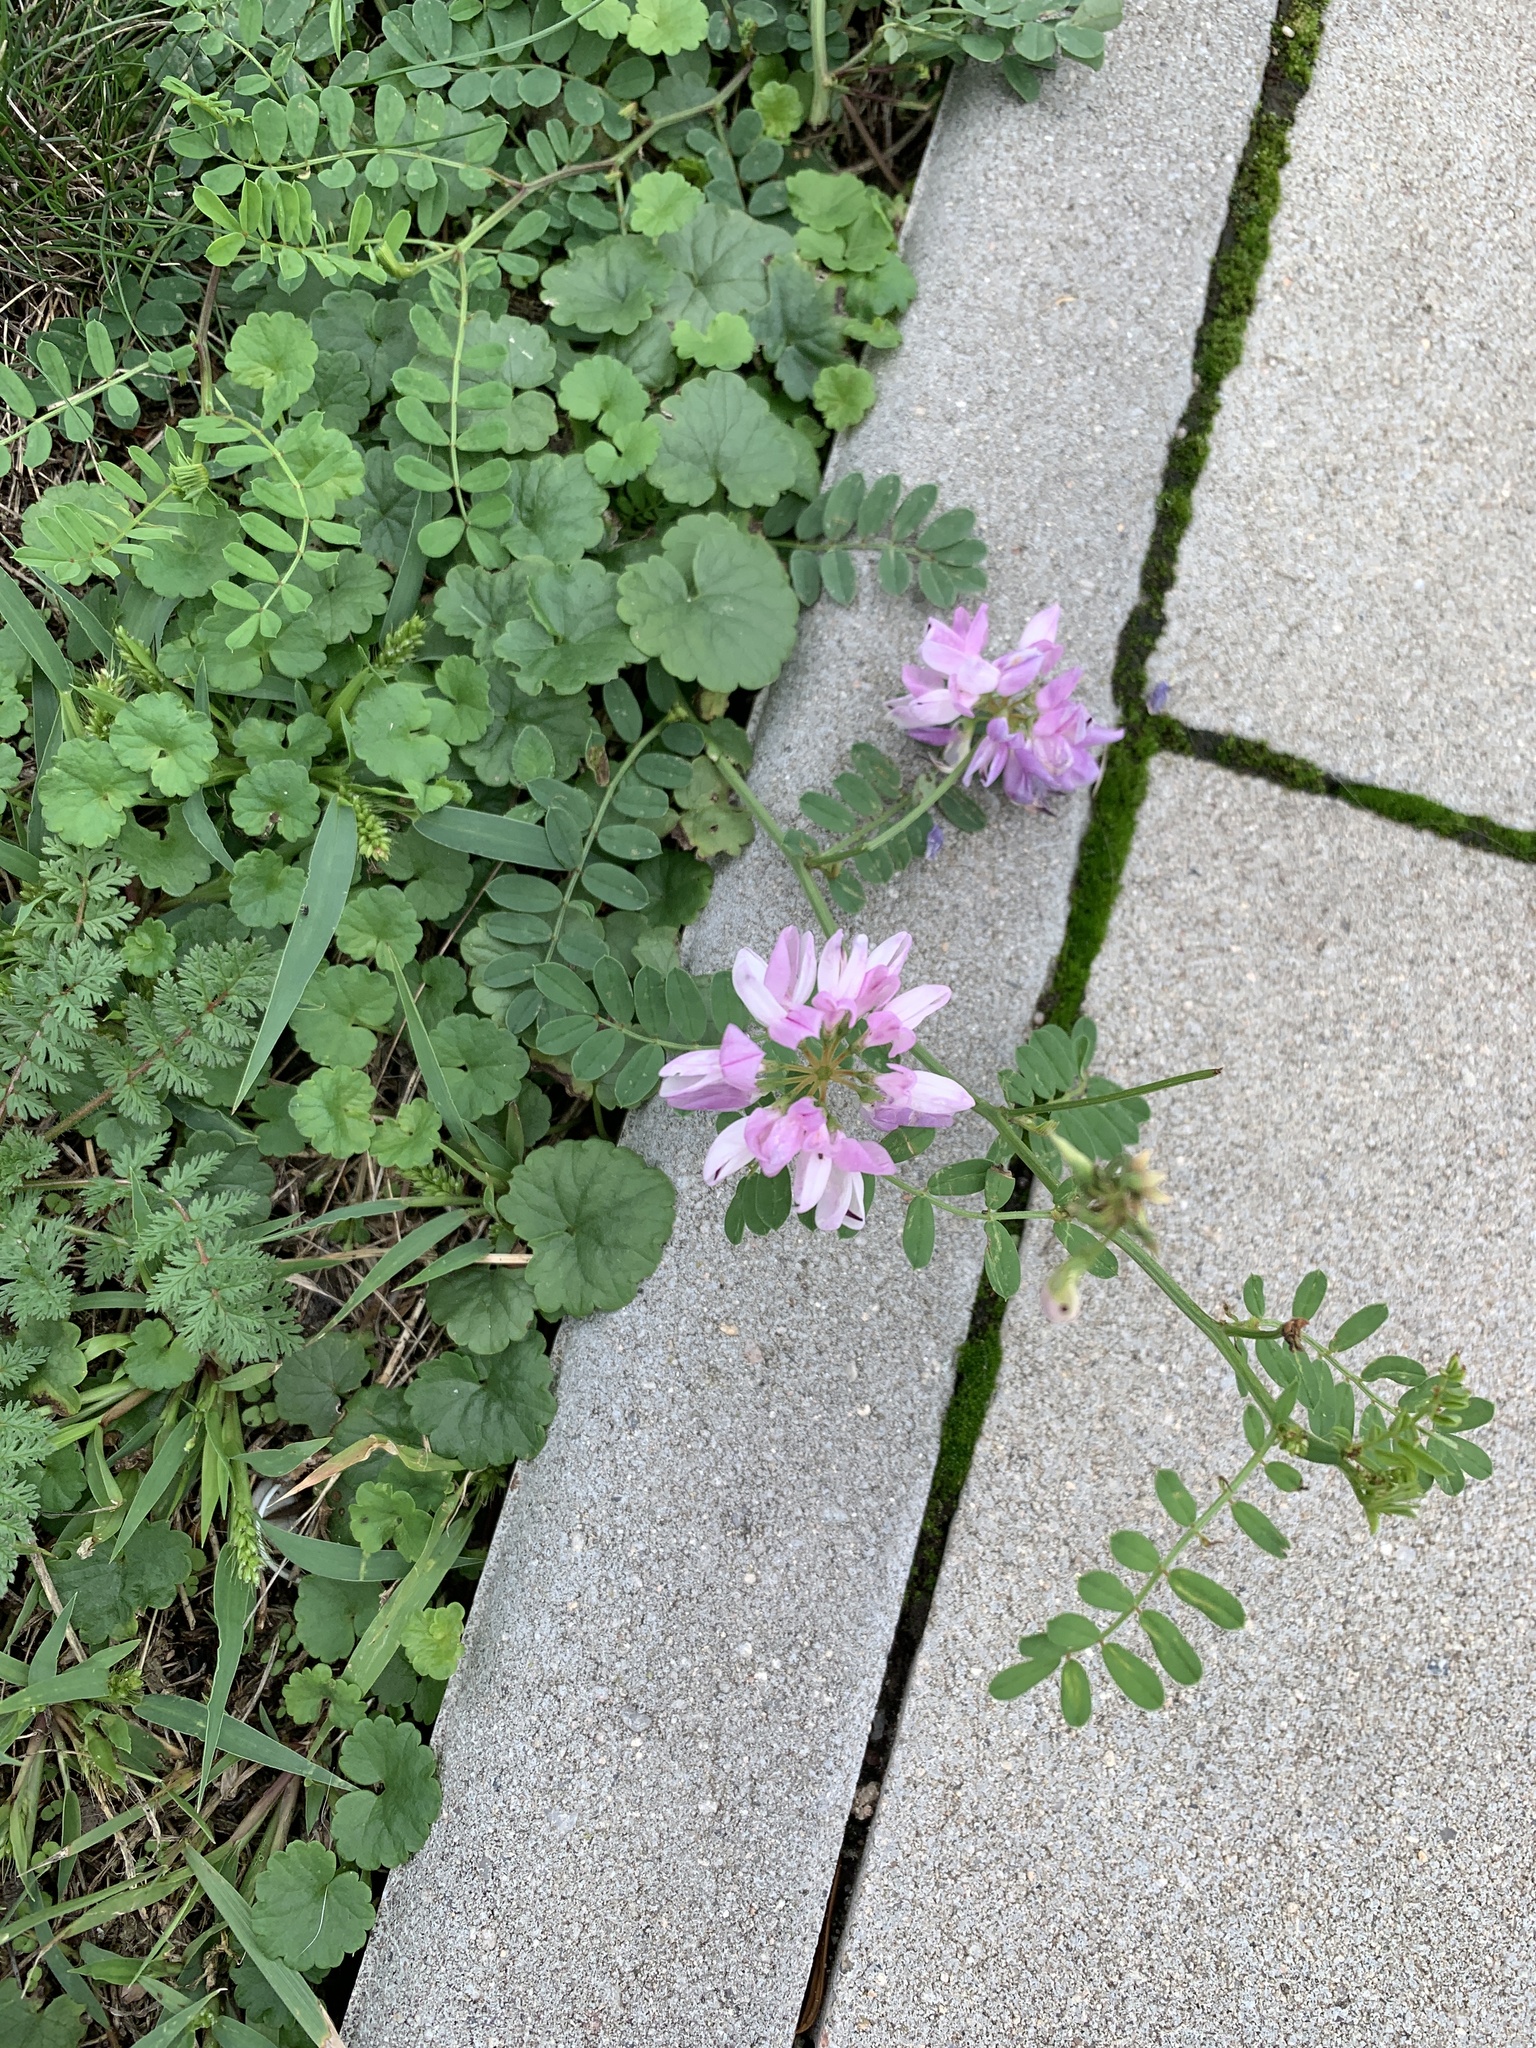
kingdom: Plantae
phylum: Tracheophyta
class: Magnoliopsida
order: Fabales
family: Fabaceae
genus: Coronilla
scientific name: Coronilla varia
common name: Crownvetch
